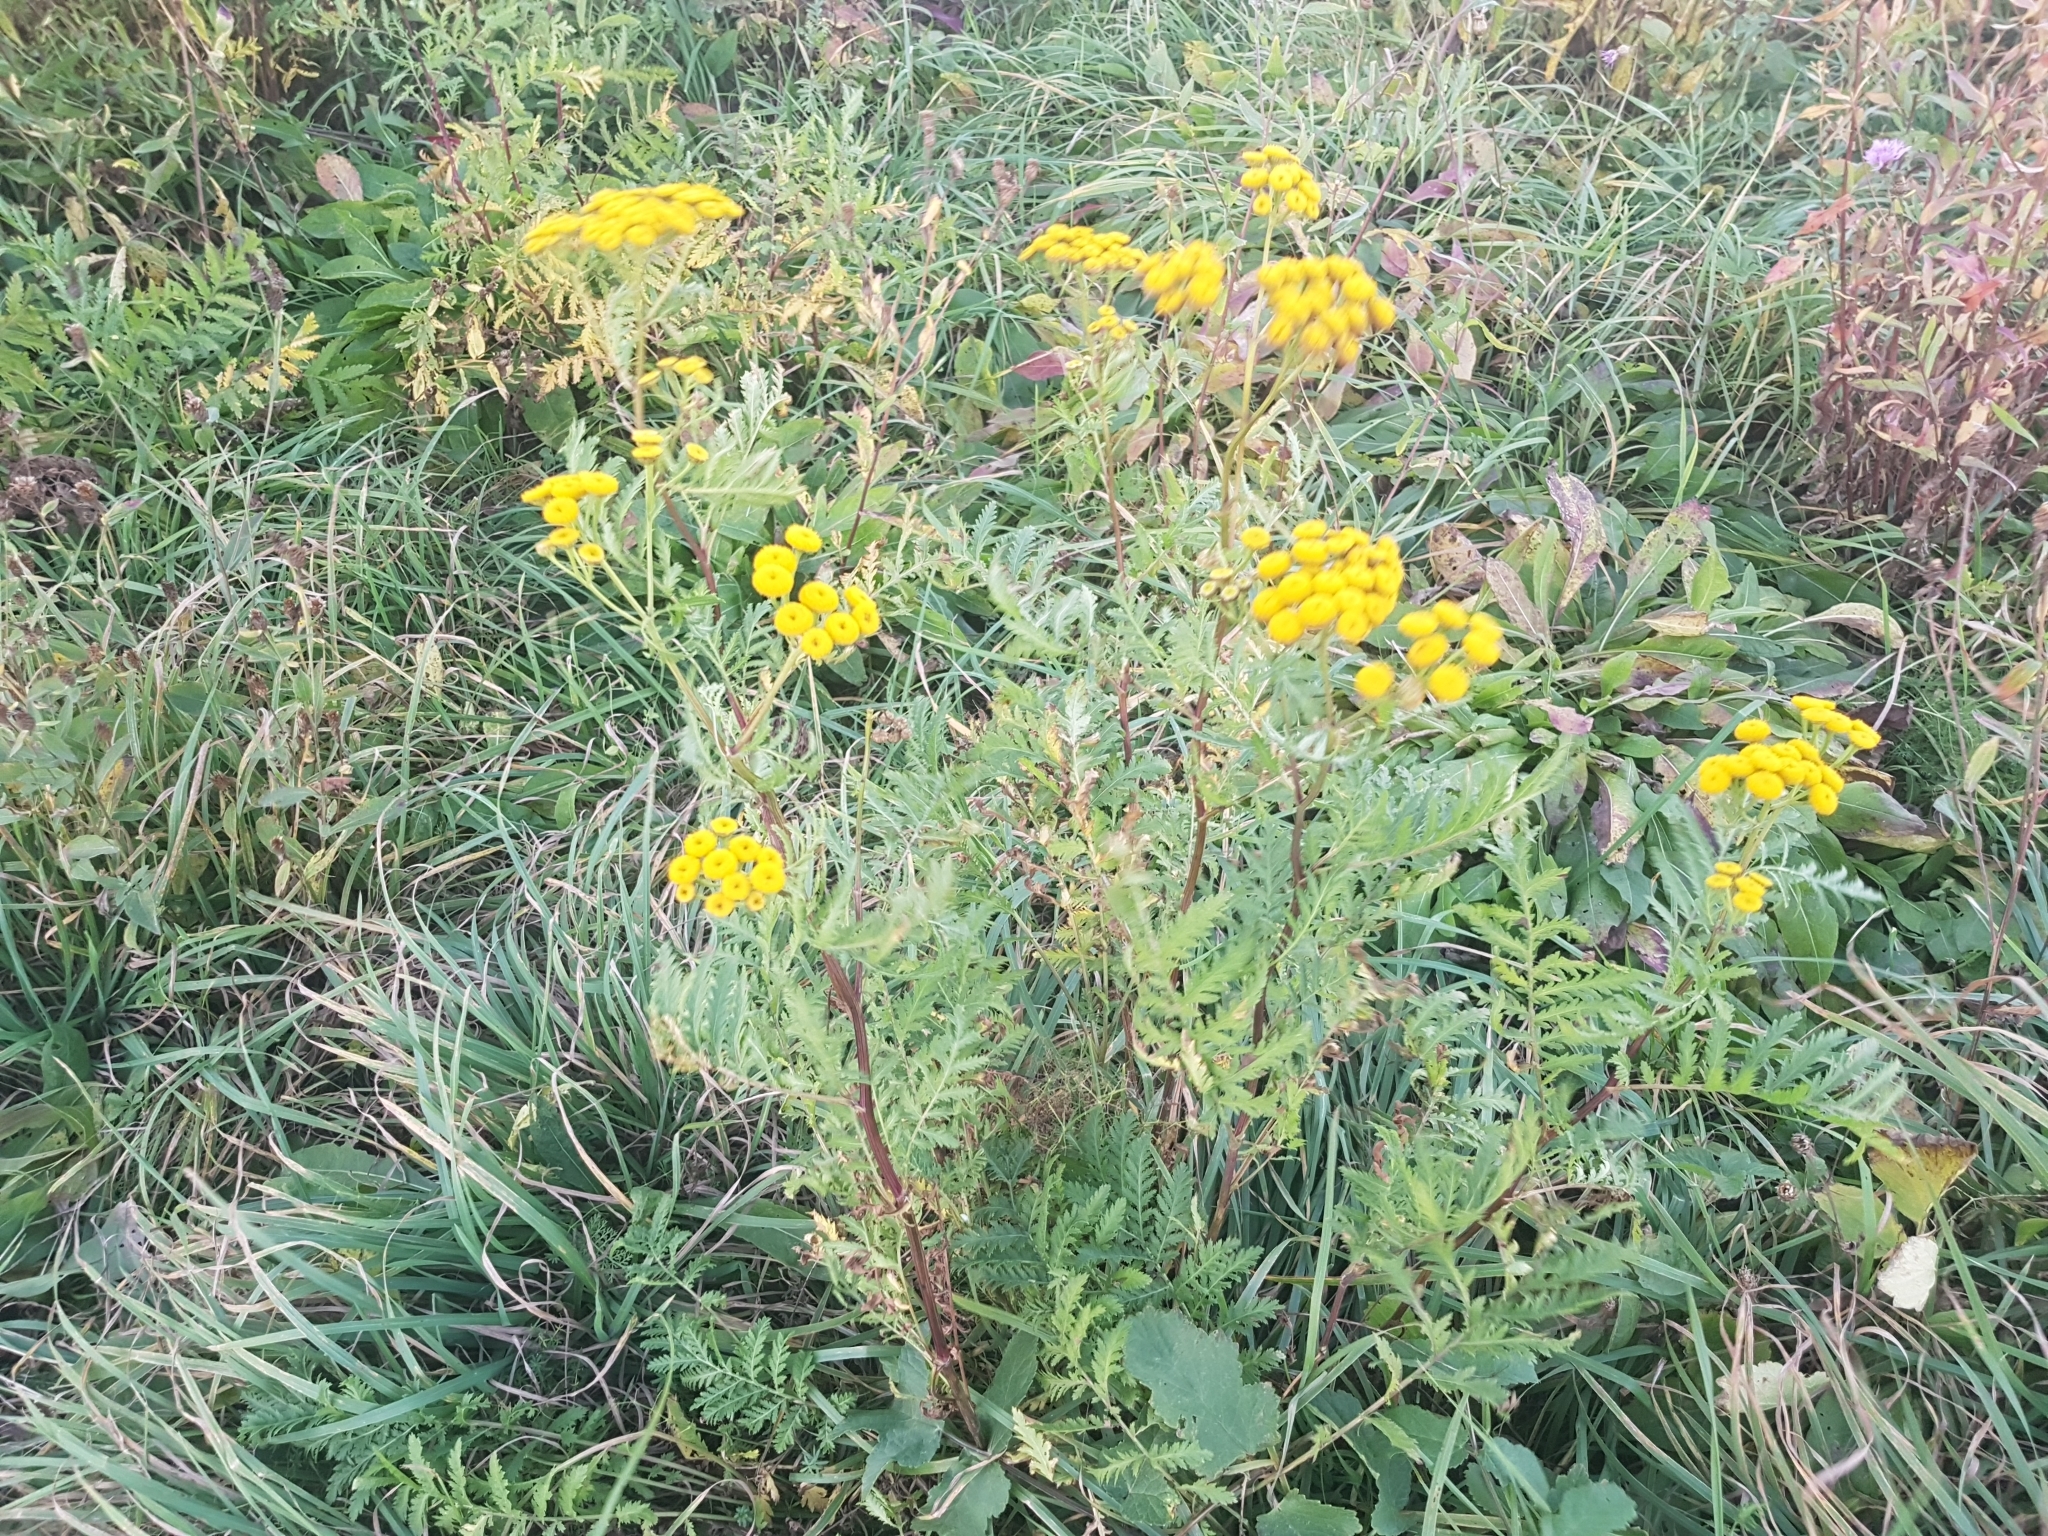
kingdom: Plantae
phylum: Tracheophyta
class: Magnoliopsida
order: Asterales
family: Asteraceae
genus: Tanacetum
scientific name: Tanacetum vulgare
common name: Common tansy
